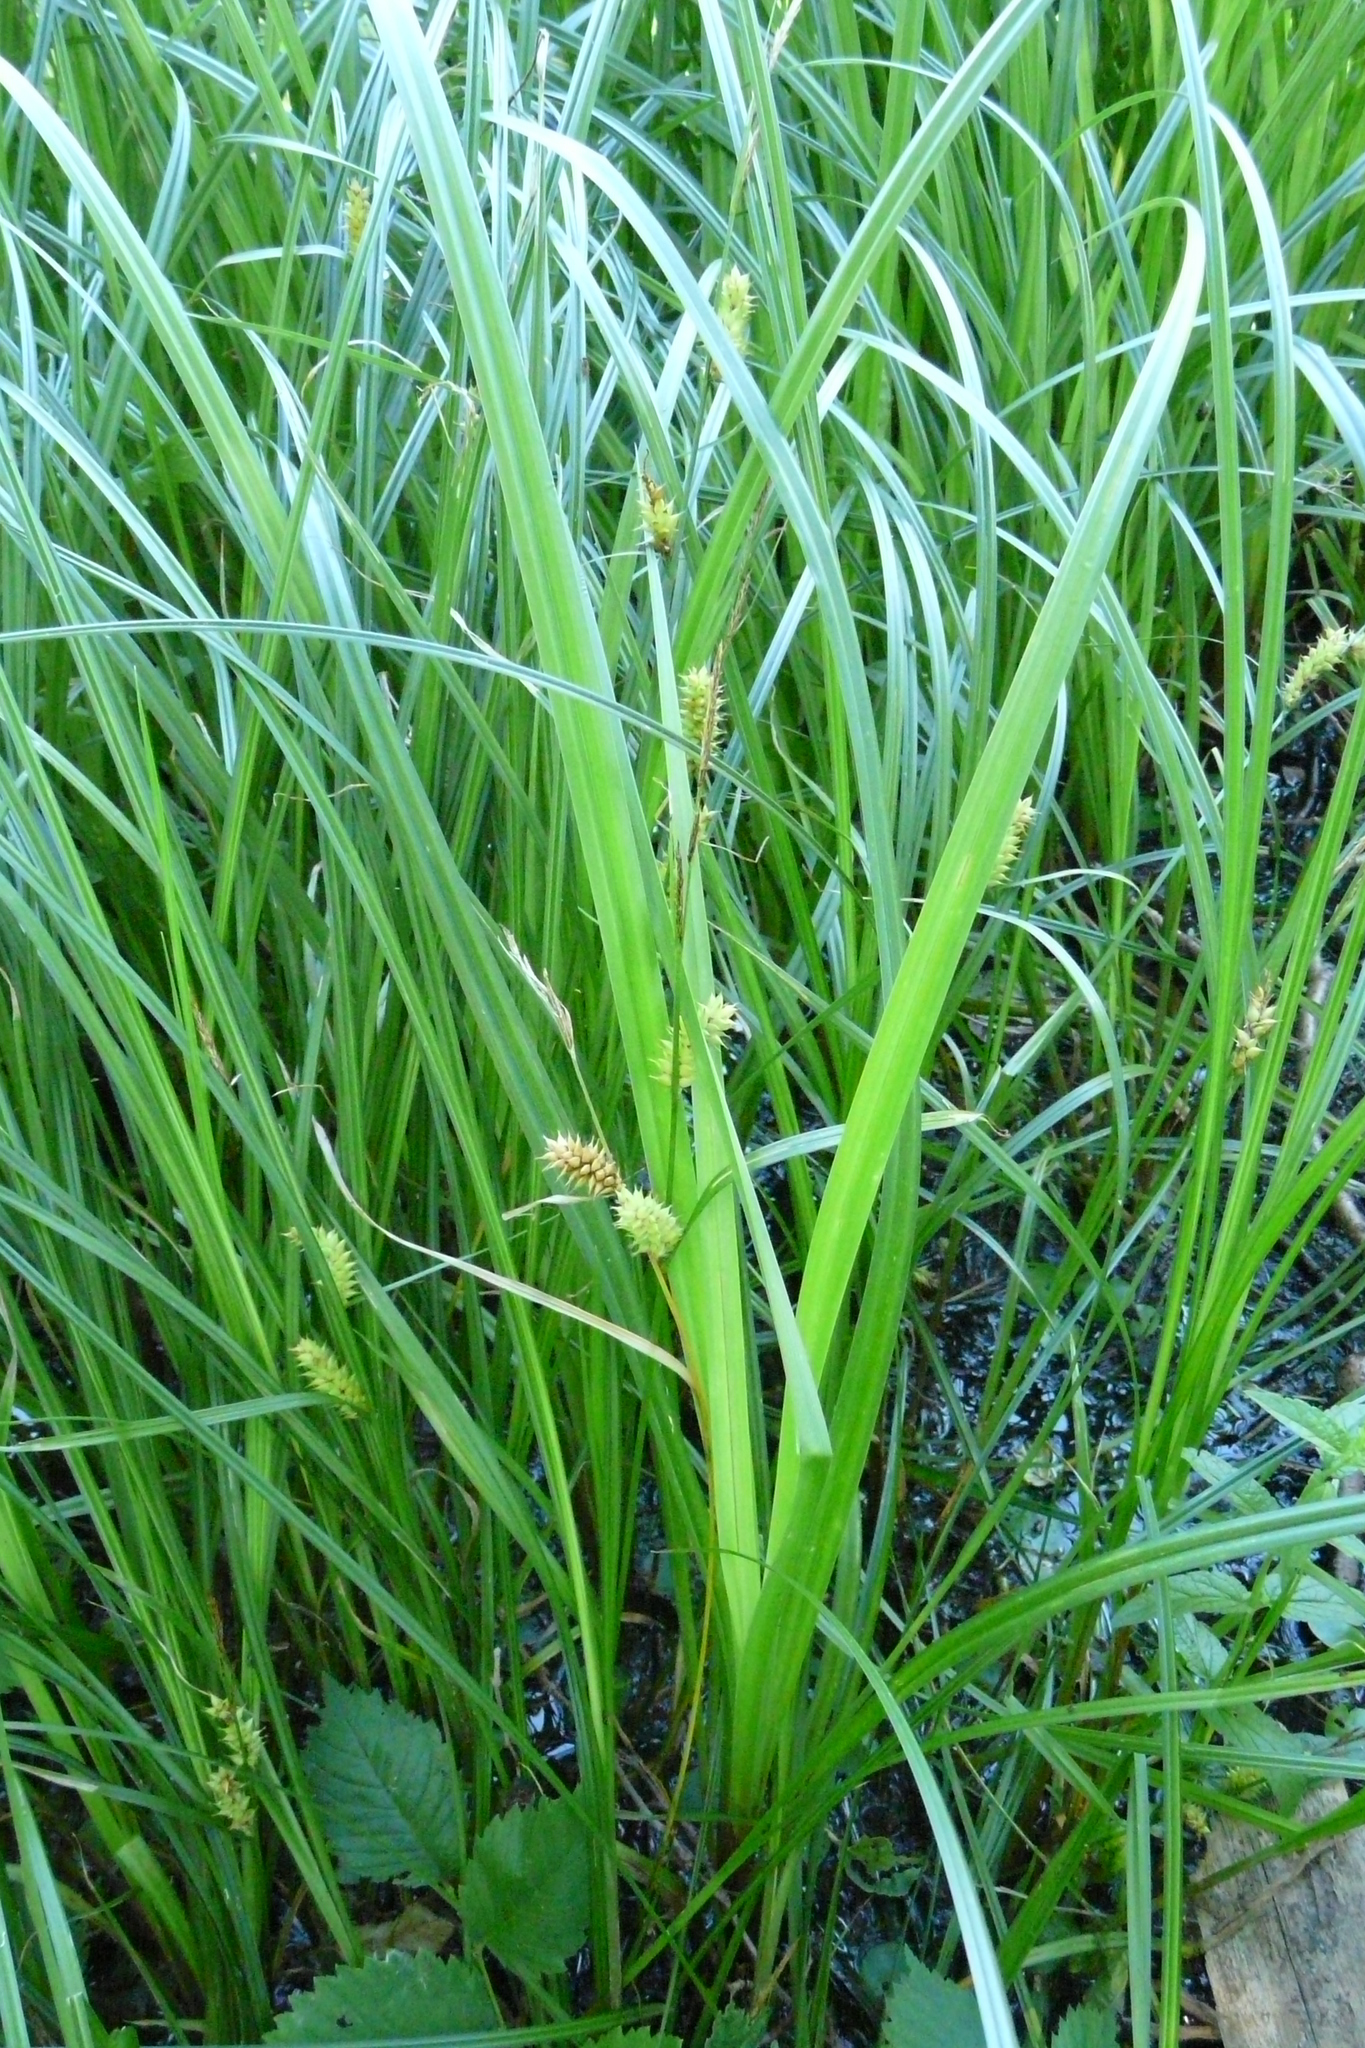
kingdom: Plantae
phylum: Tracheophyta
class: Liliopsida
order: Poales
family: Cyperaceae
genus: Carex
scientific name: Carex vesicaria
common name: Bladder-sedge
